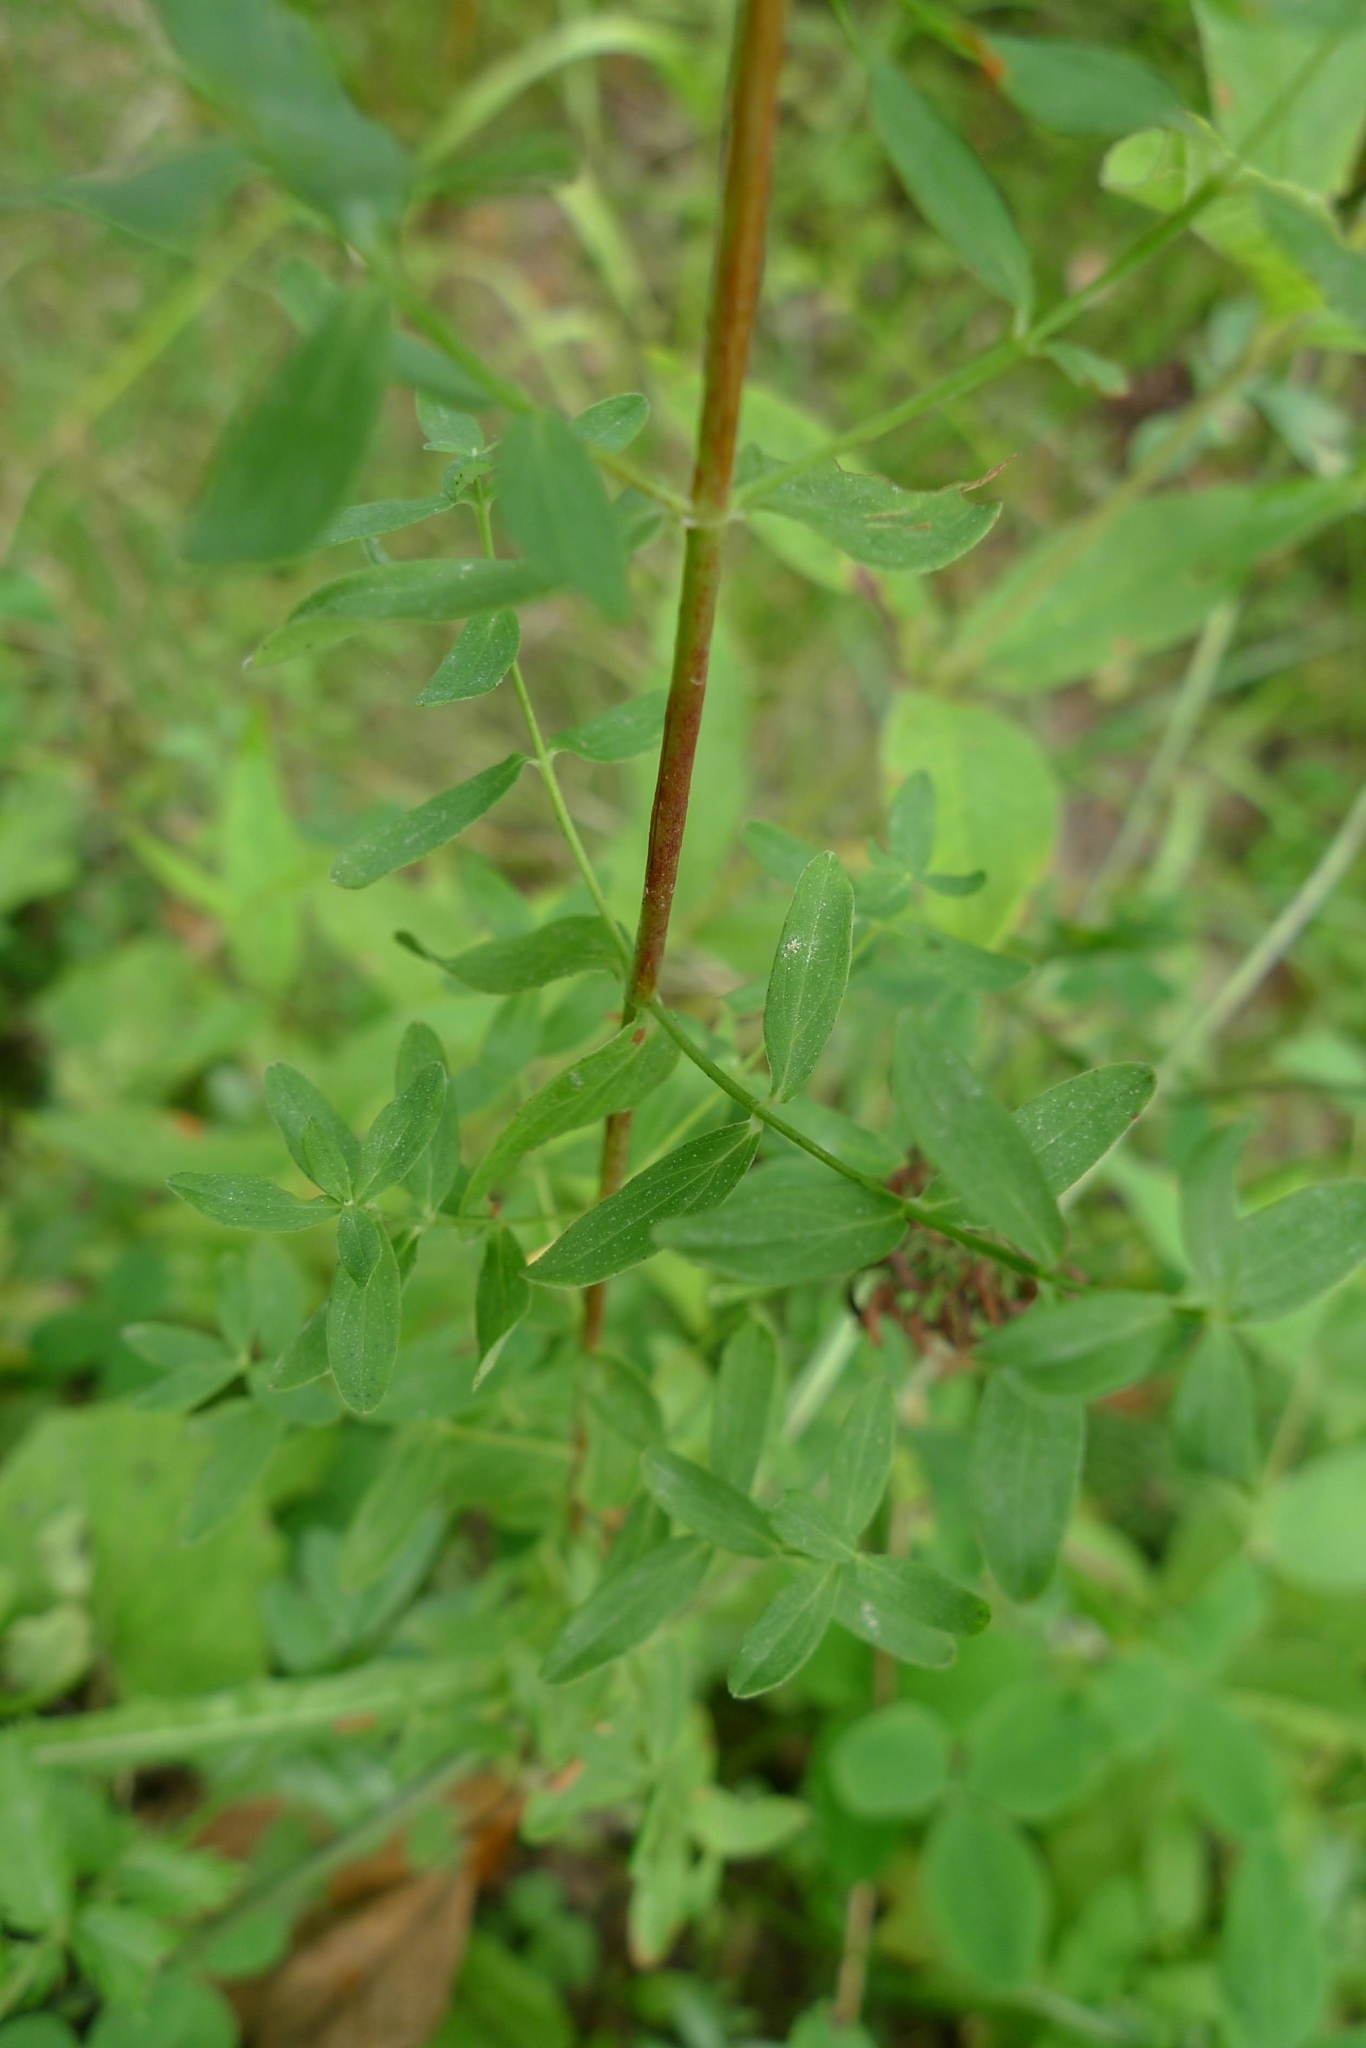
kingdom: Plantae
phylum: Tracheophyta
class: Magnoliopsida
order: Malpighiales
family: Hypericaceae
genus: Hypericum
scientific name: Hypericum perforatum
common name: Common st. johnswort
